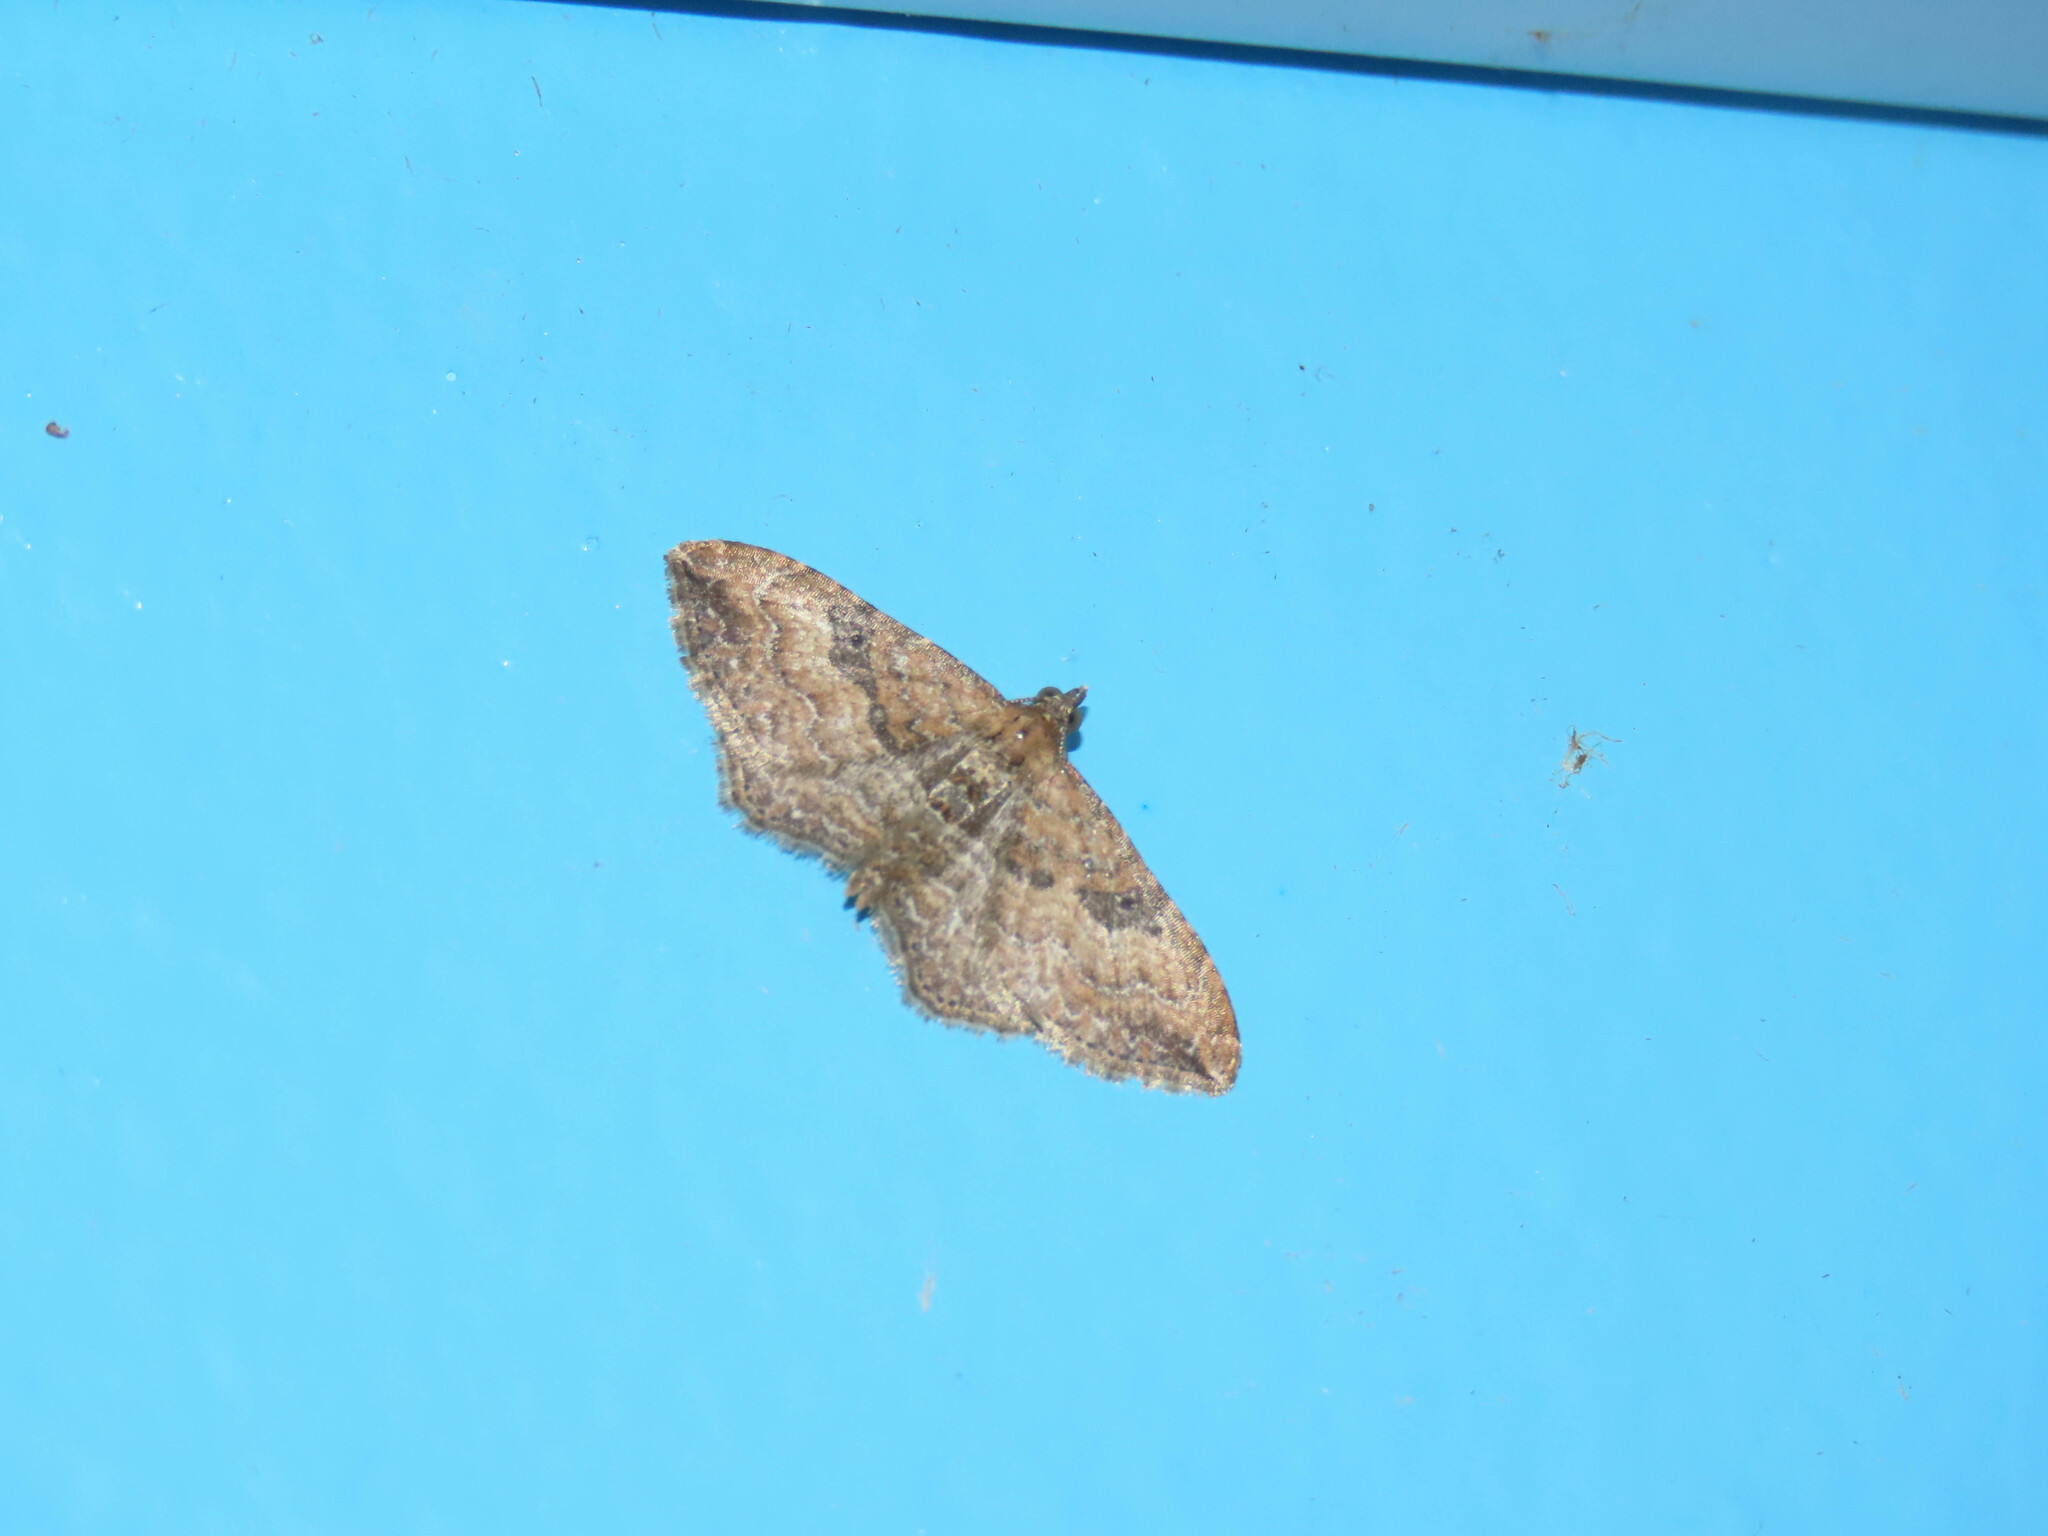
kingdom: Animalia
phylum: Arthropoda
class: Insecta
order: Lepidoptera
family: Geometridae
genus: Orthonama
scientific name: Orthonama obstipata
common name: The gem
